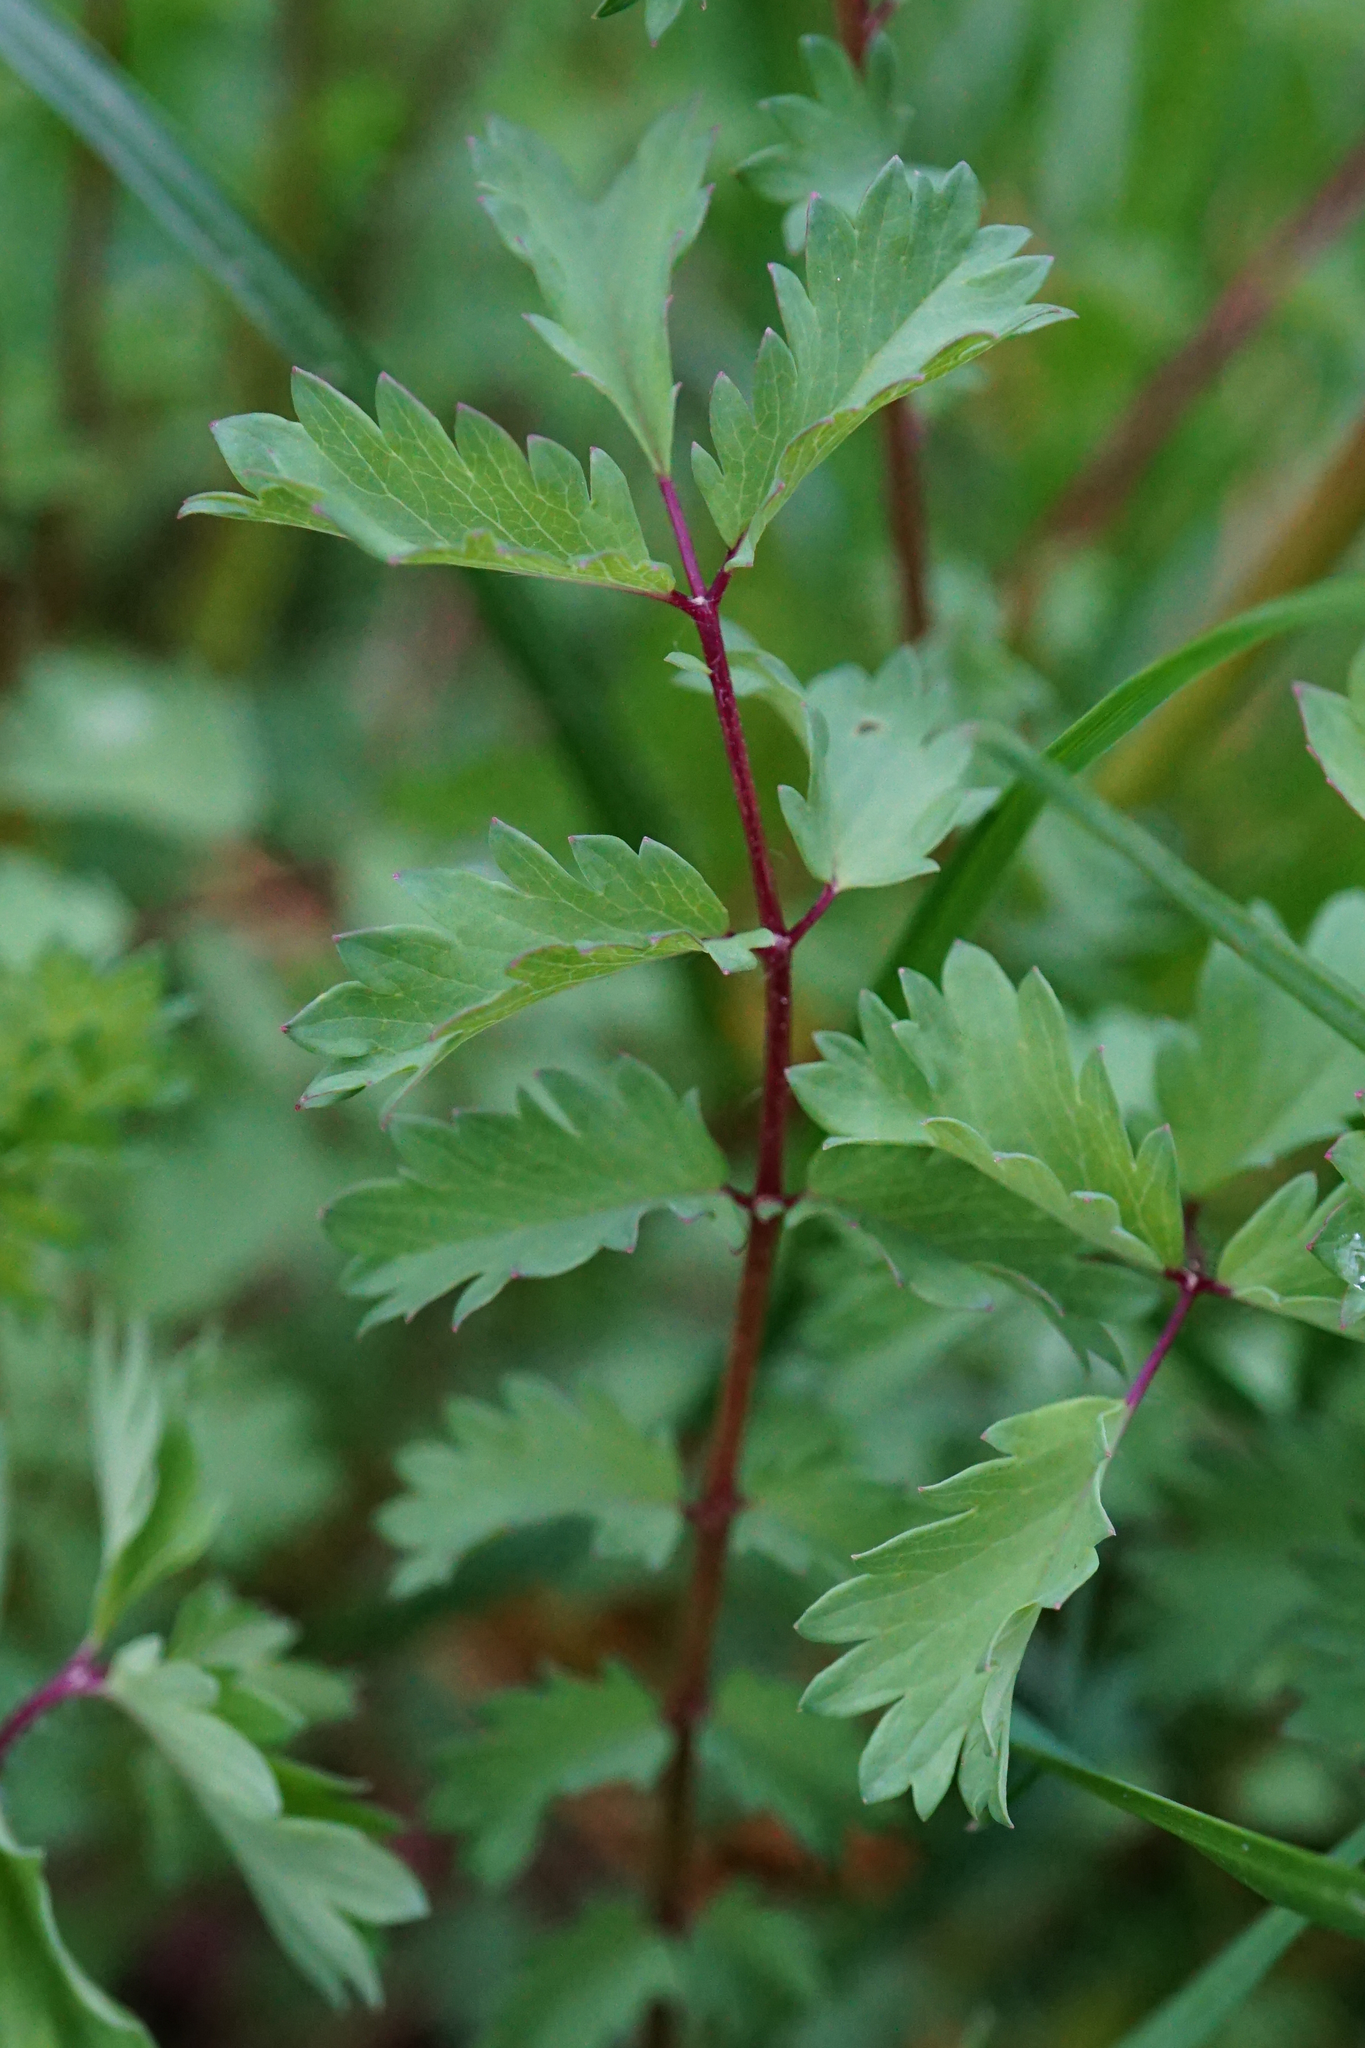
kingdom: Plantae
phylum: Tracheophyta
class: Magnoliopsida
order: Rosales
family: Rosaceae
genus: Poterium
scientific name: Poterium sanguisorba
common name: Salad burnet
